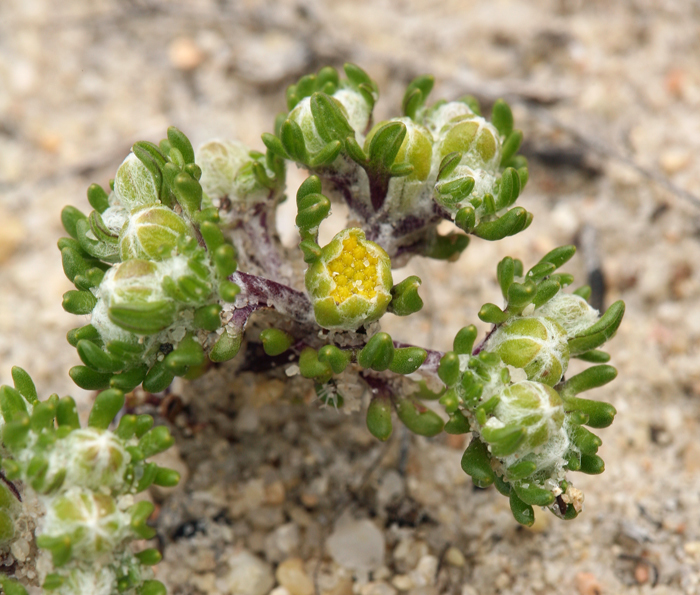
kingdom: Plantae
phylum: Tracheophyta
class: Magnoliopsida
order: Asterales
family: Asteraceae
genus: Eriophyllum
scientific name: Eriophyllum pringlei
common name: Pringle's woolly-sunflower
